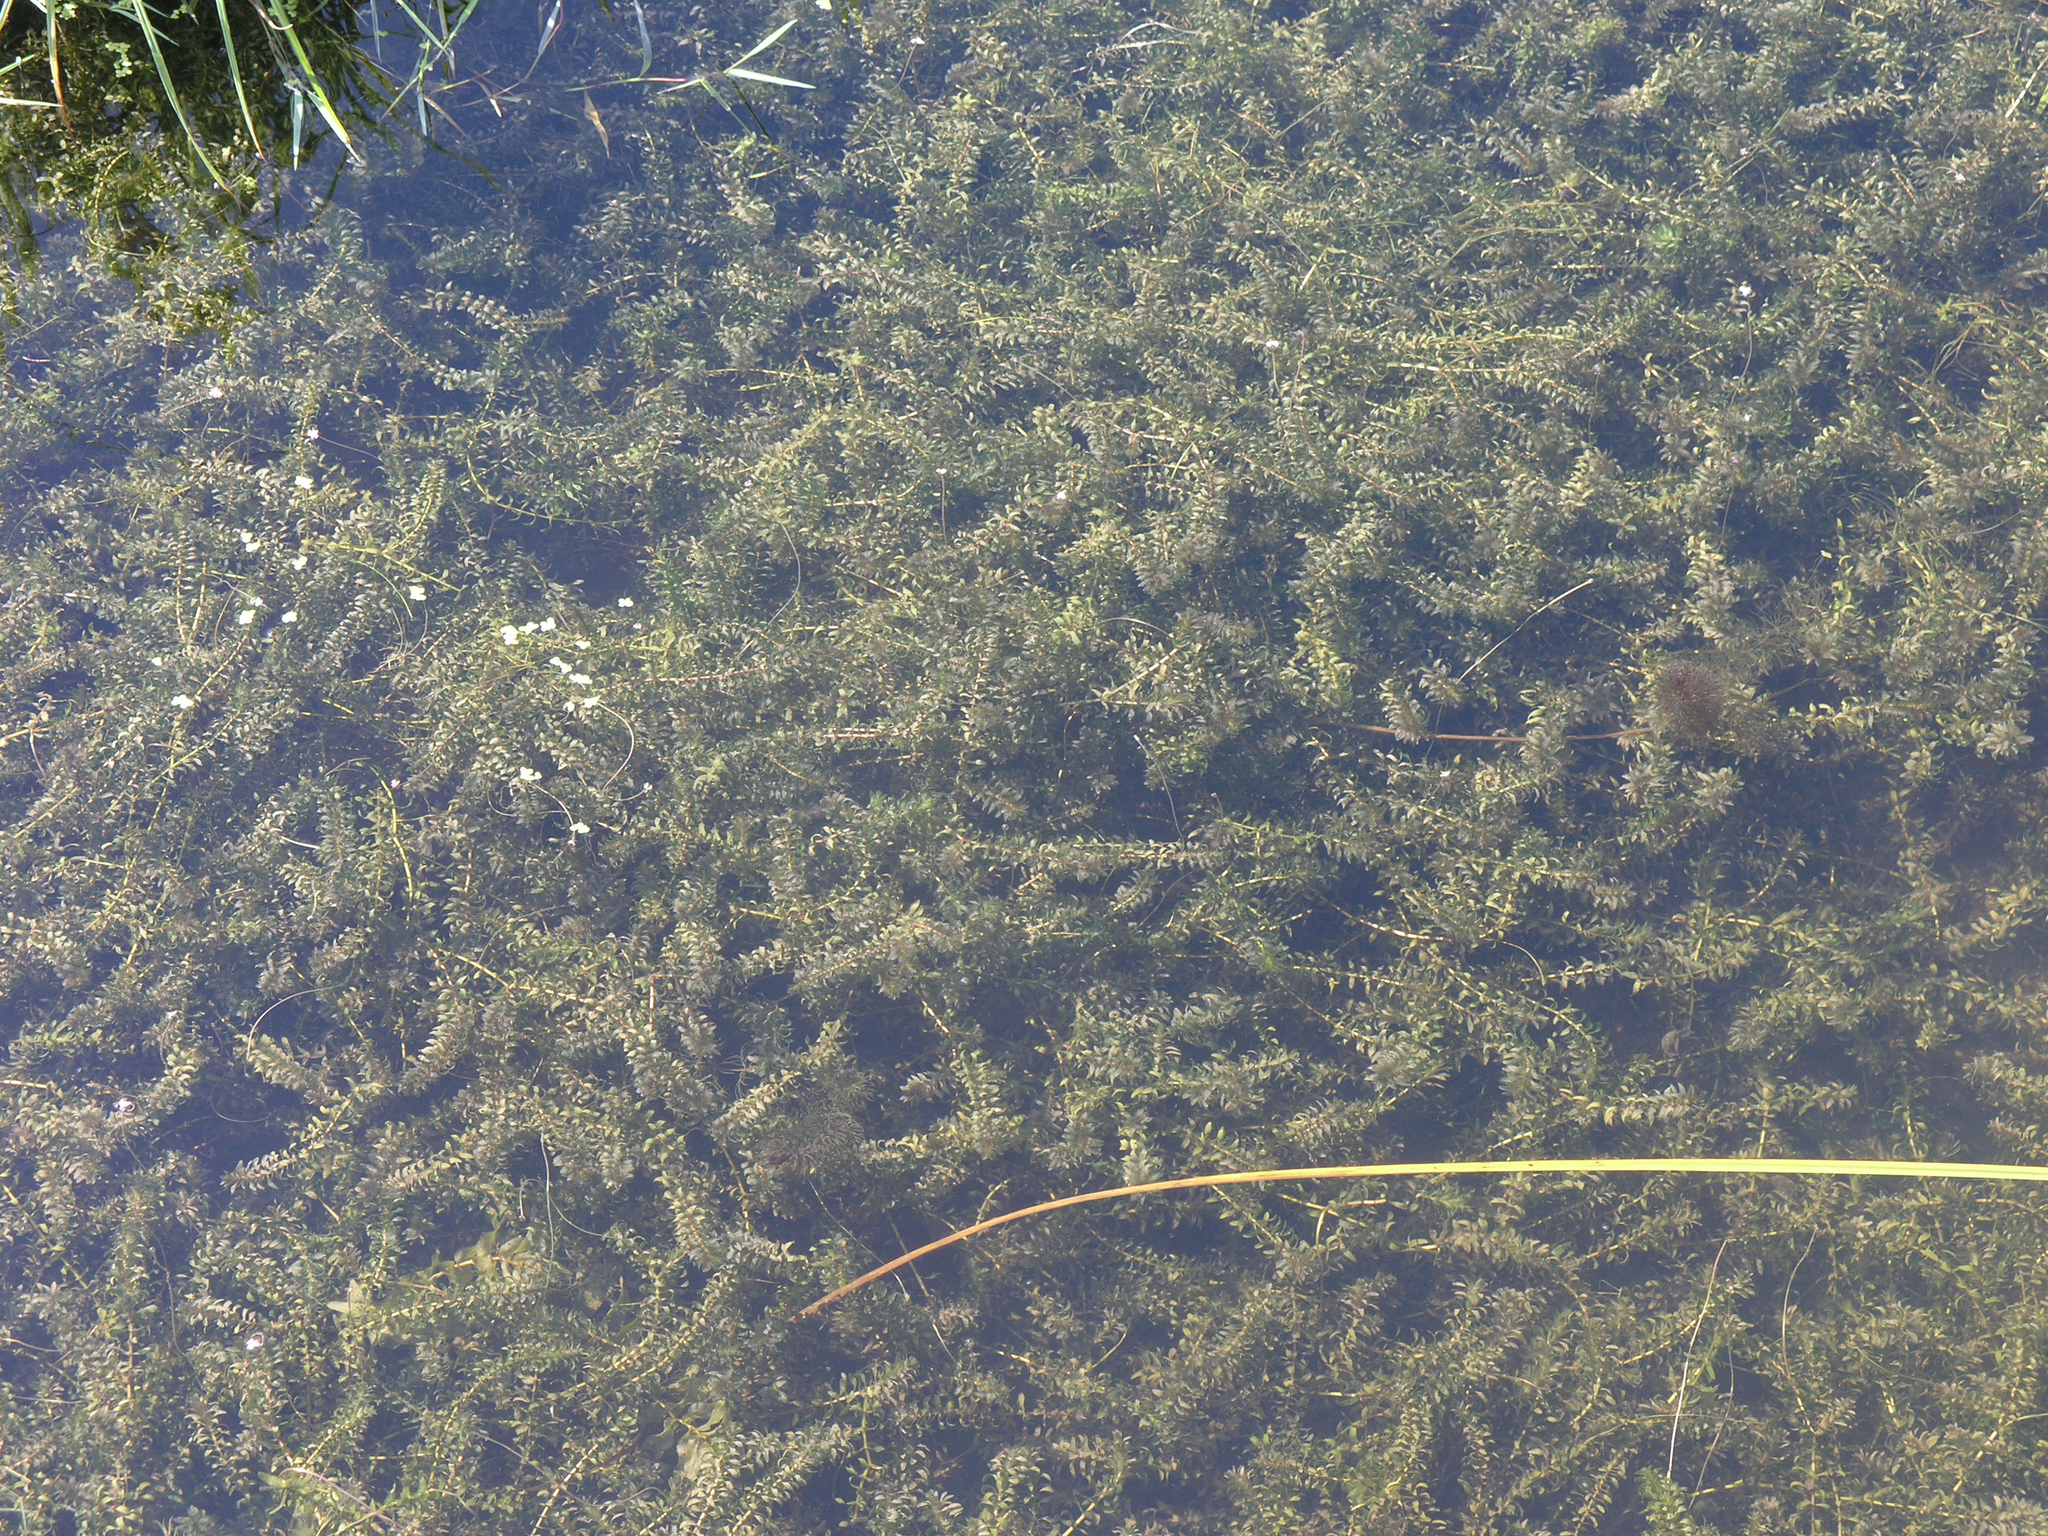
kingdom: Plantae
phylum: Tracheophyta
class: Liliopsida
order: Alismatales
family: Hydrocharitaceae
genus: Elodea
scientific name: Elodea canadensis
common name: Canadian waterweed
